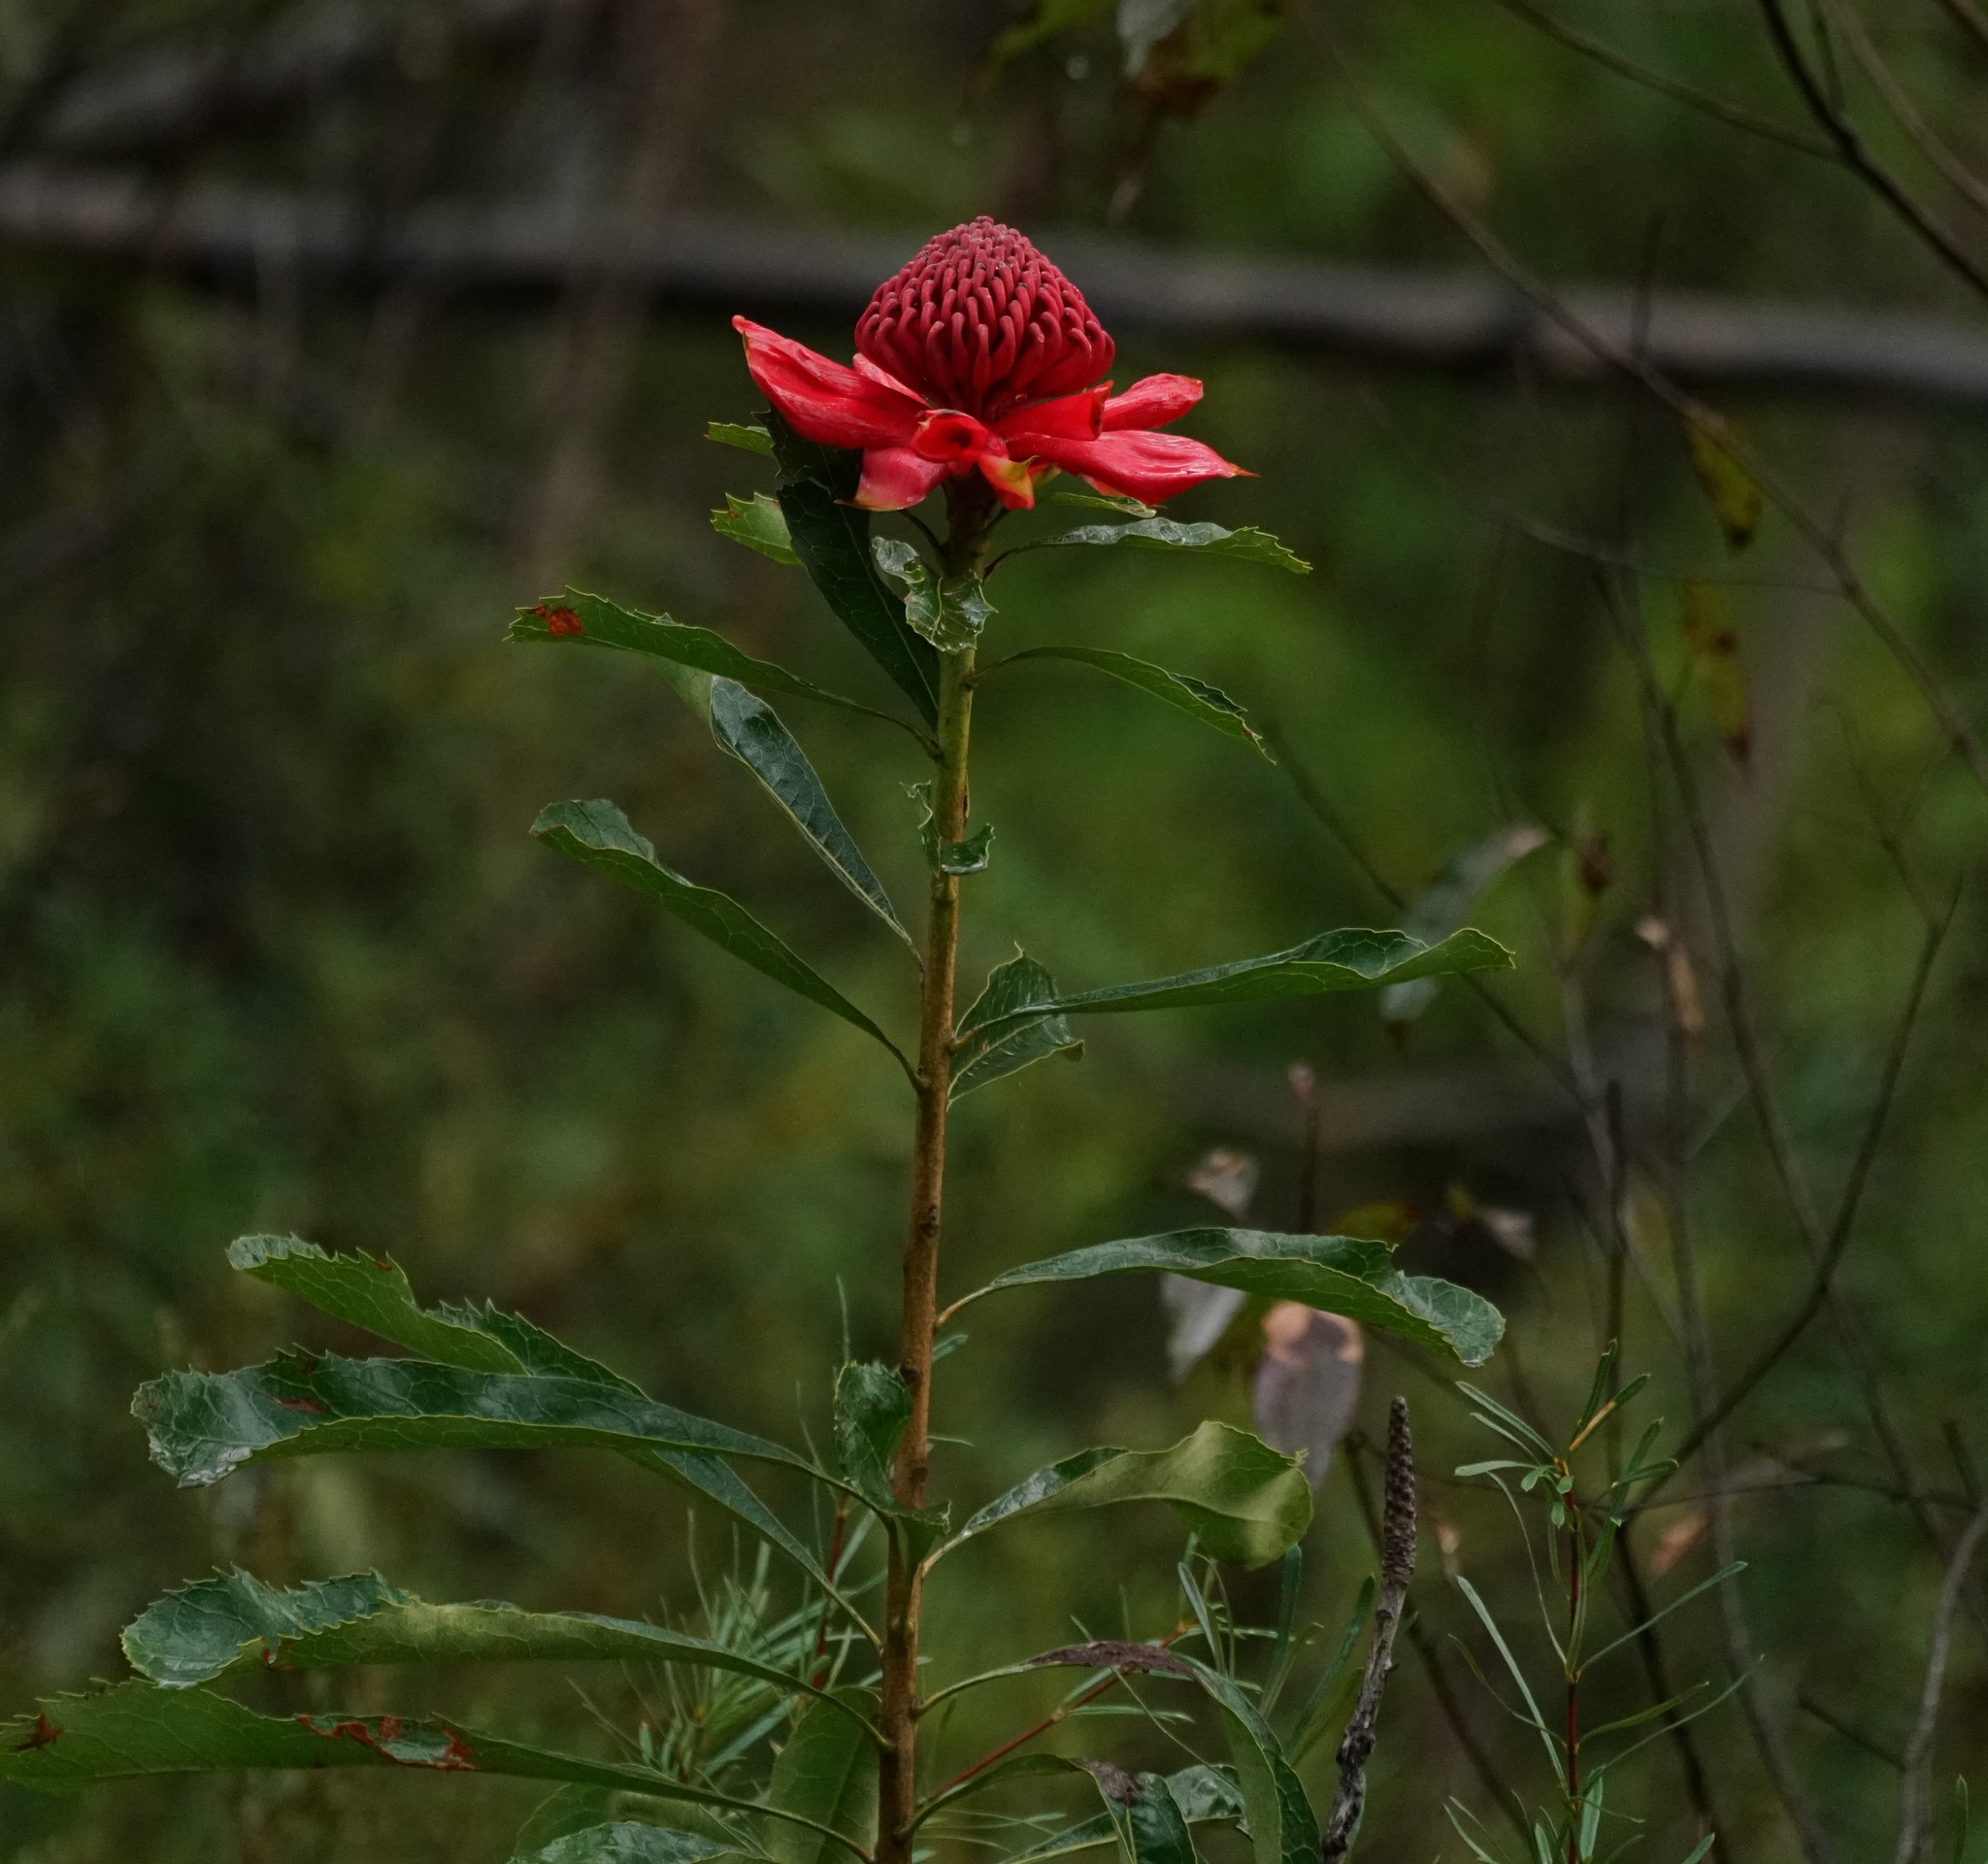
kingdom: Plantae
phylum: Tracheophyta
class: Magnoliopsida
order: Proteales
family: Proteaceae
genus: Telopea
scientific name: Telopea speciosissima
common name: New south wales waratah
